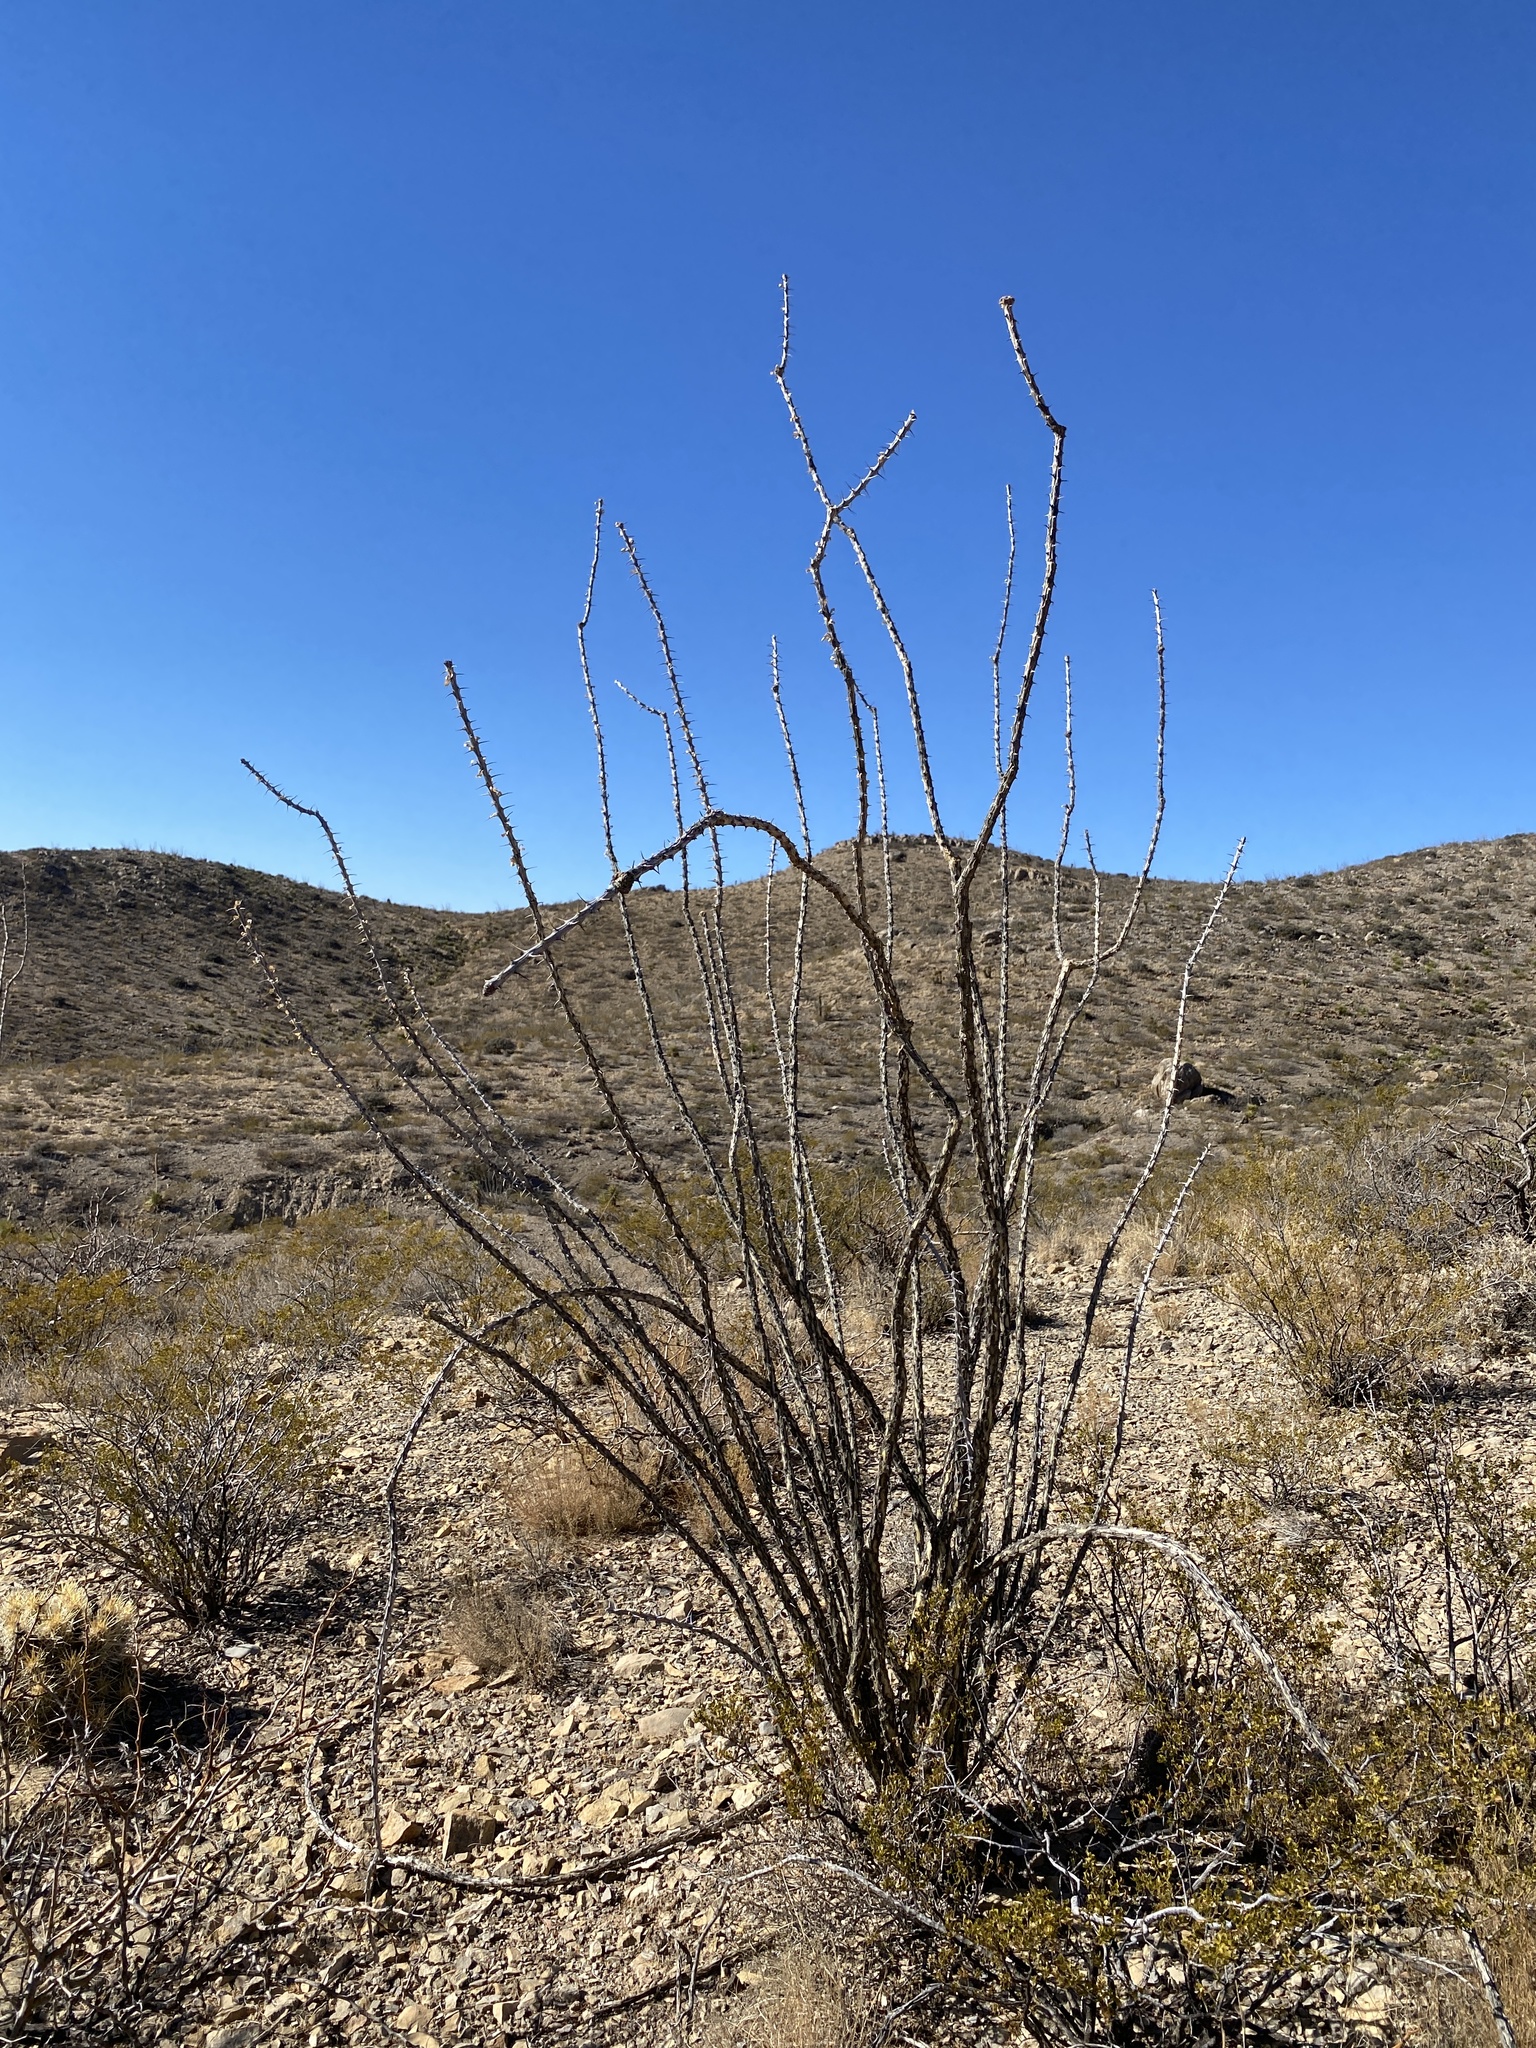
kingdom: Plantae
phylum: Tracheophyta
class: Magnoliopsida
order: Ericales
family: Fouquieriaceae
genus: Fouquieria
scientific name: Fouquieria splendens
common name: Vine-cactus
